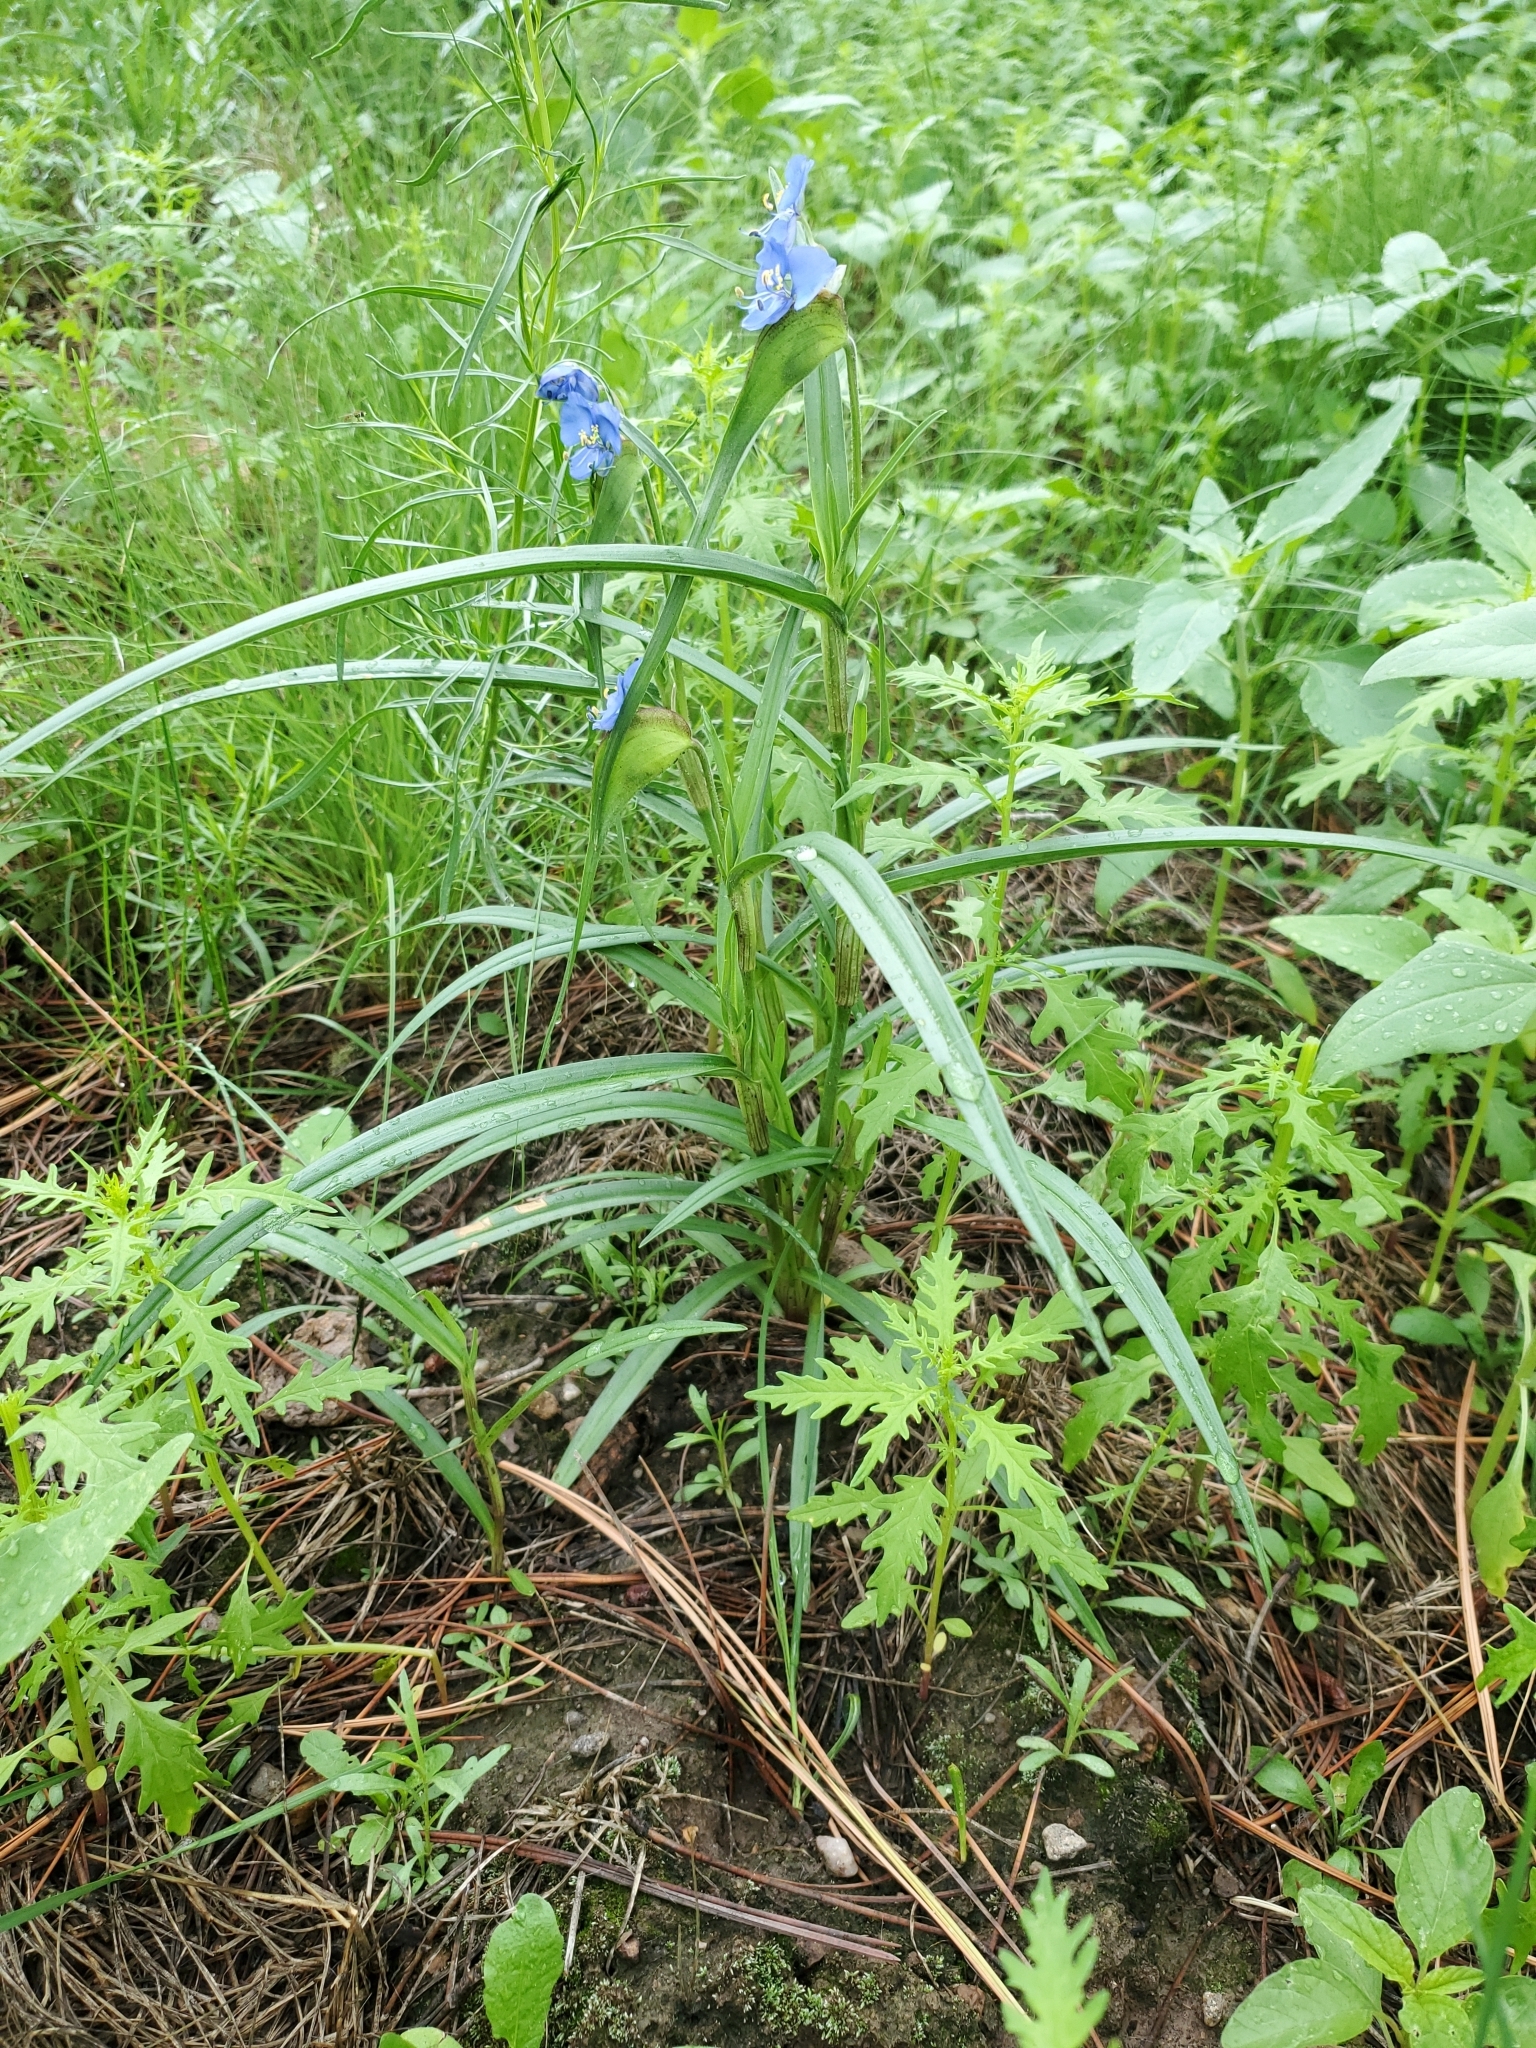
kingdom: Plantae
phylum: Tracheophyta
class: Liliopsida
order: Commelinales
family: Commelinaceae
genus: Commelina
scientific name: Commelina dianthifolia
